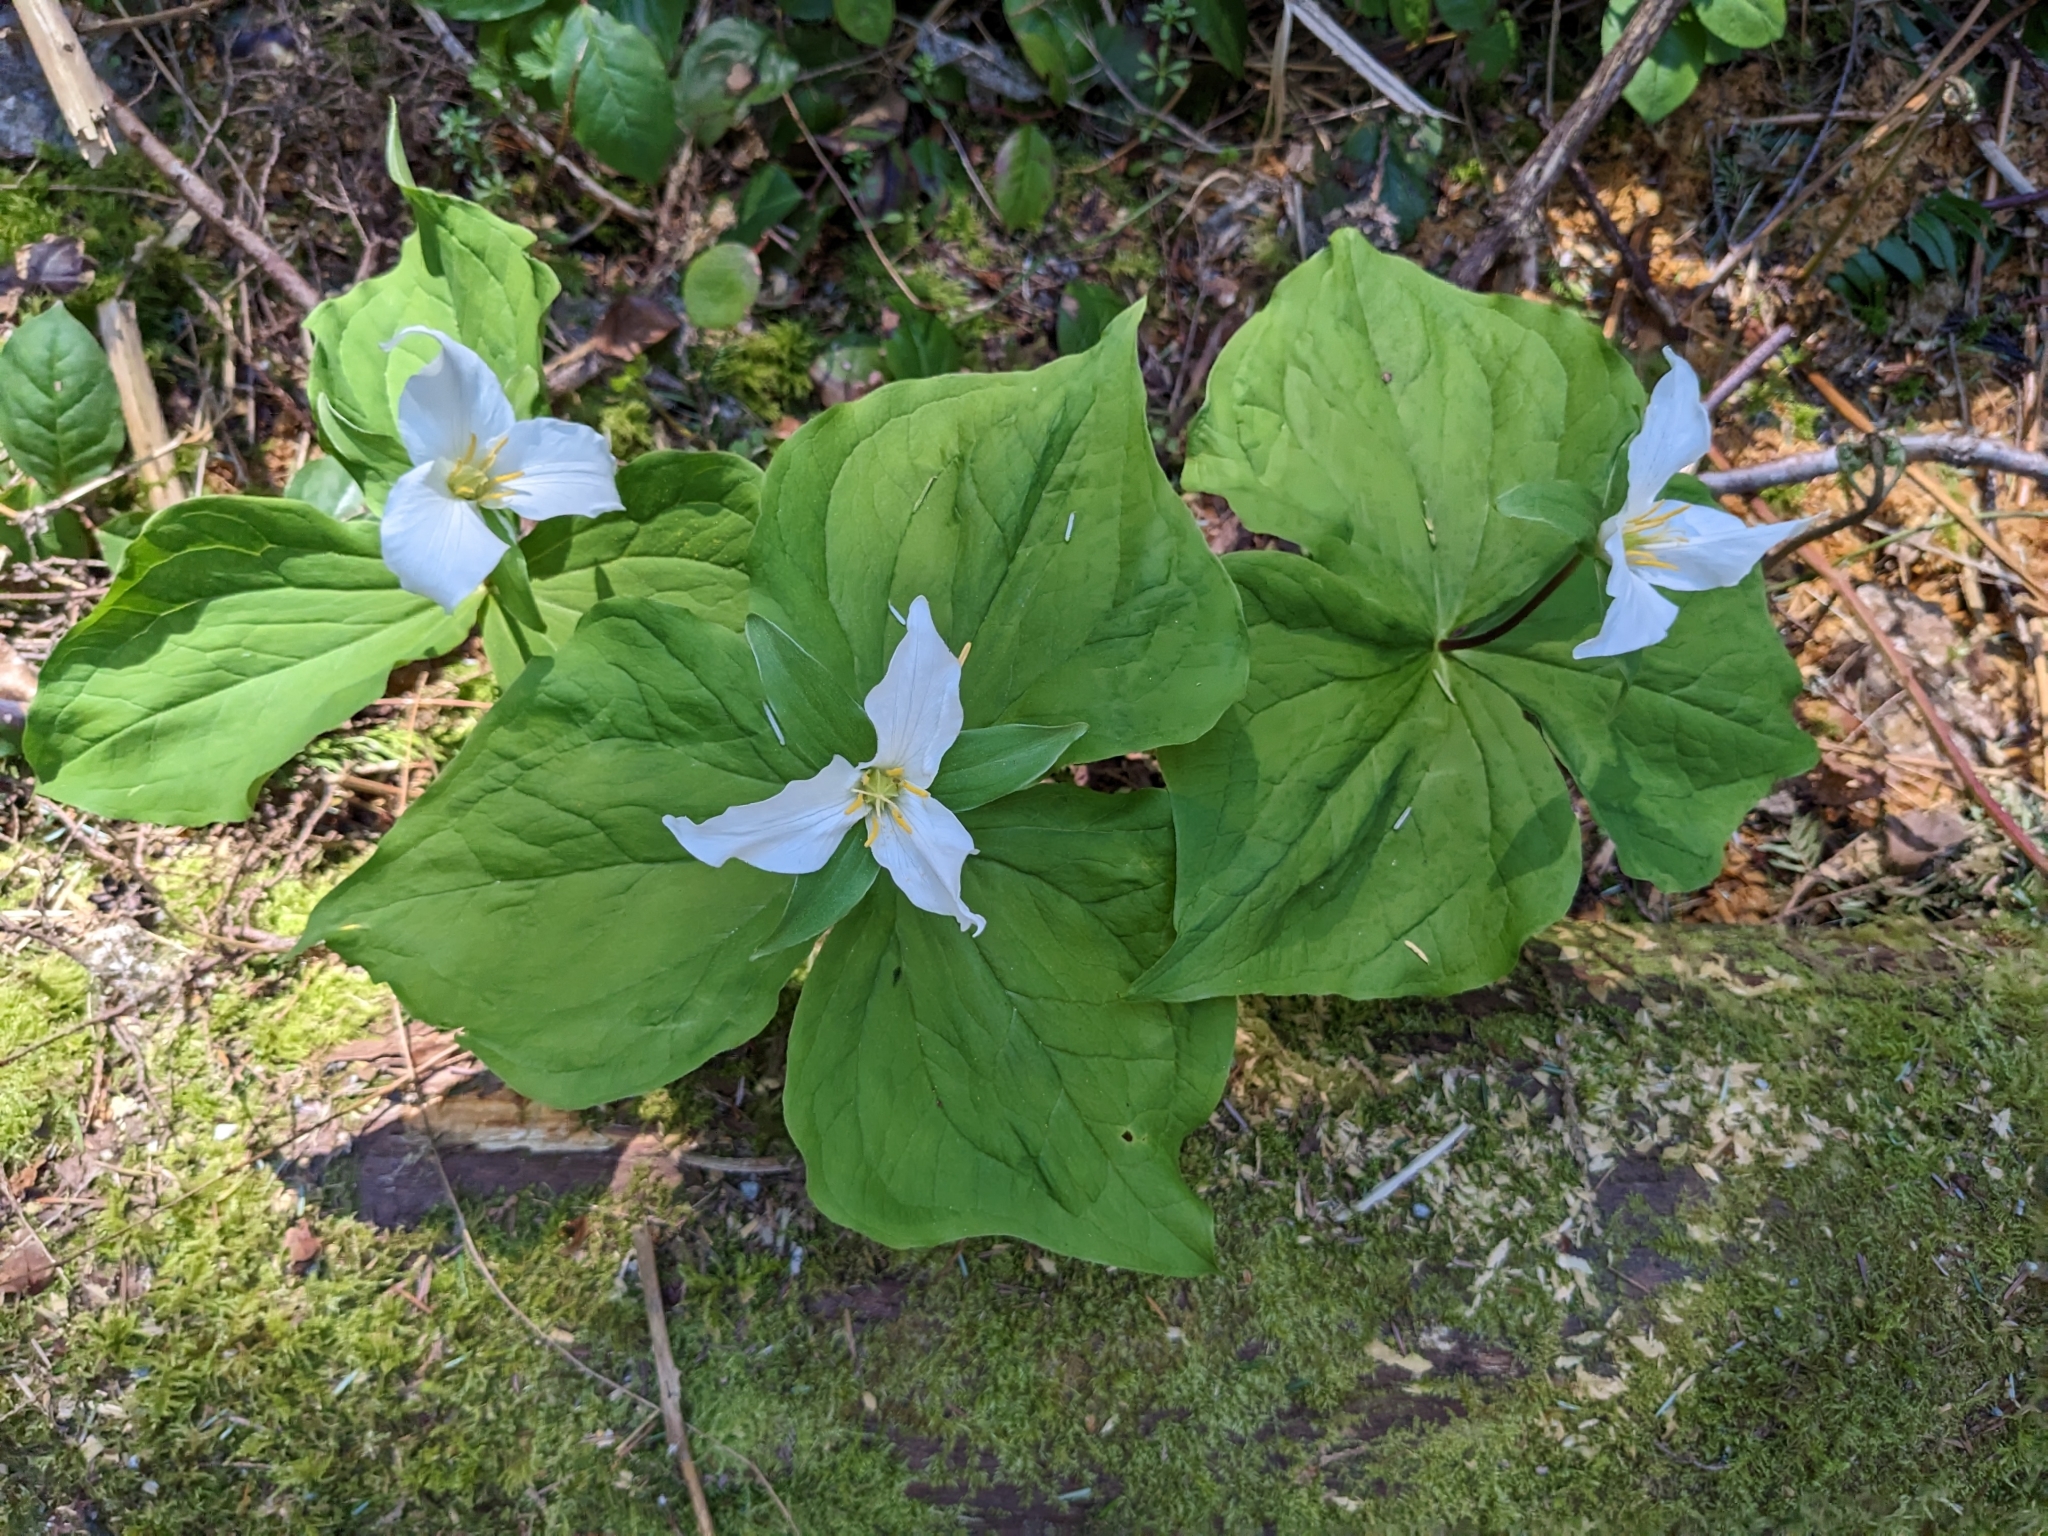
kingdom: Plantae
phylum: Tracheophyta
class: Liliopsida
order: Liliales
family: Melanthiaceae
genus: Trillium
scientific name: Trillium ovatum
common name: Pacific trillium
